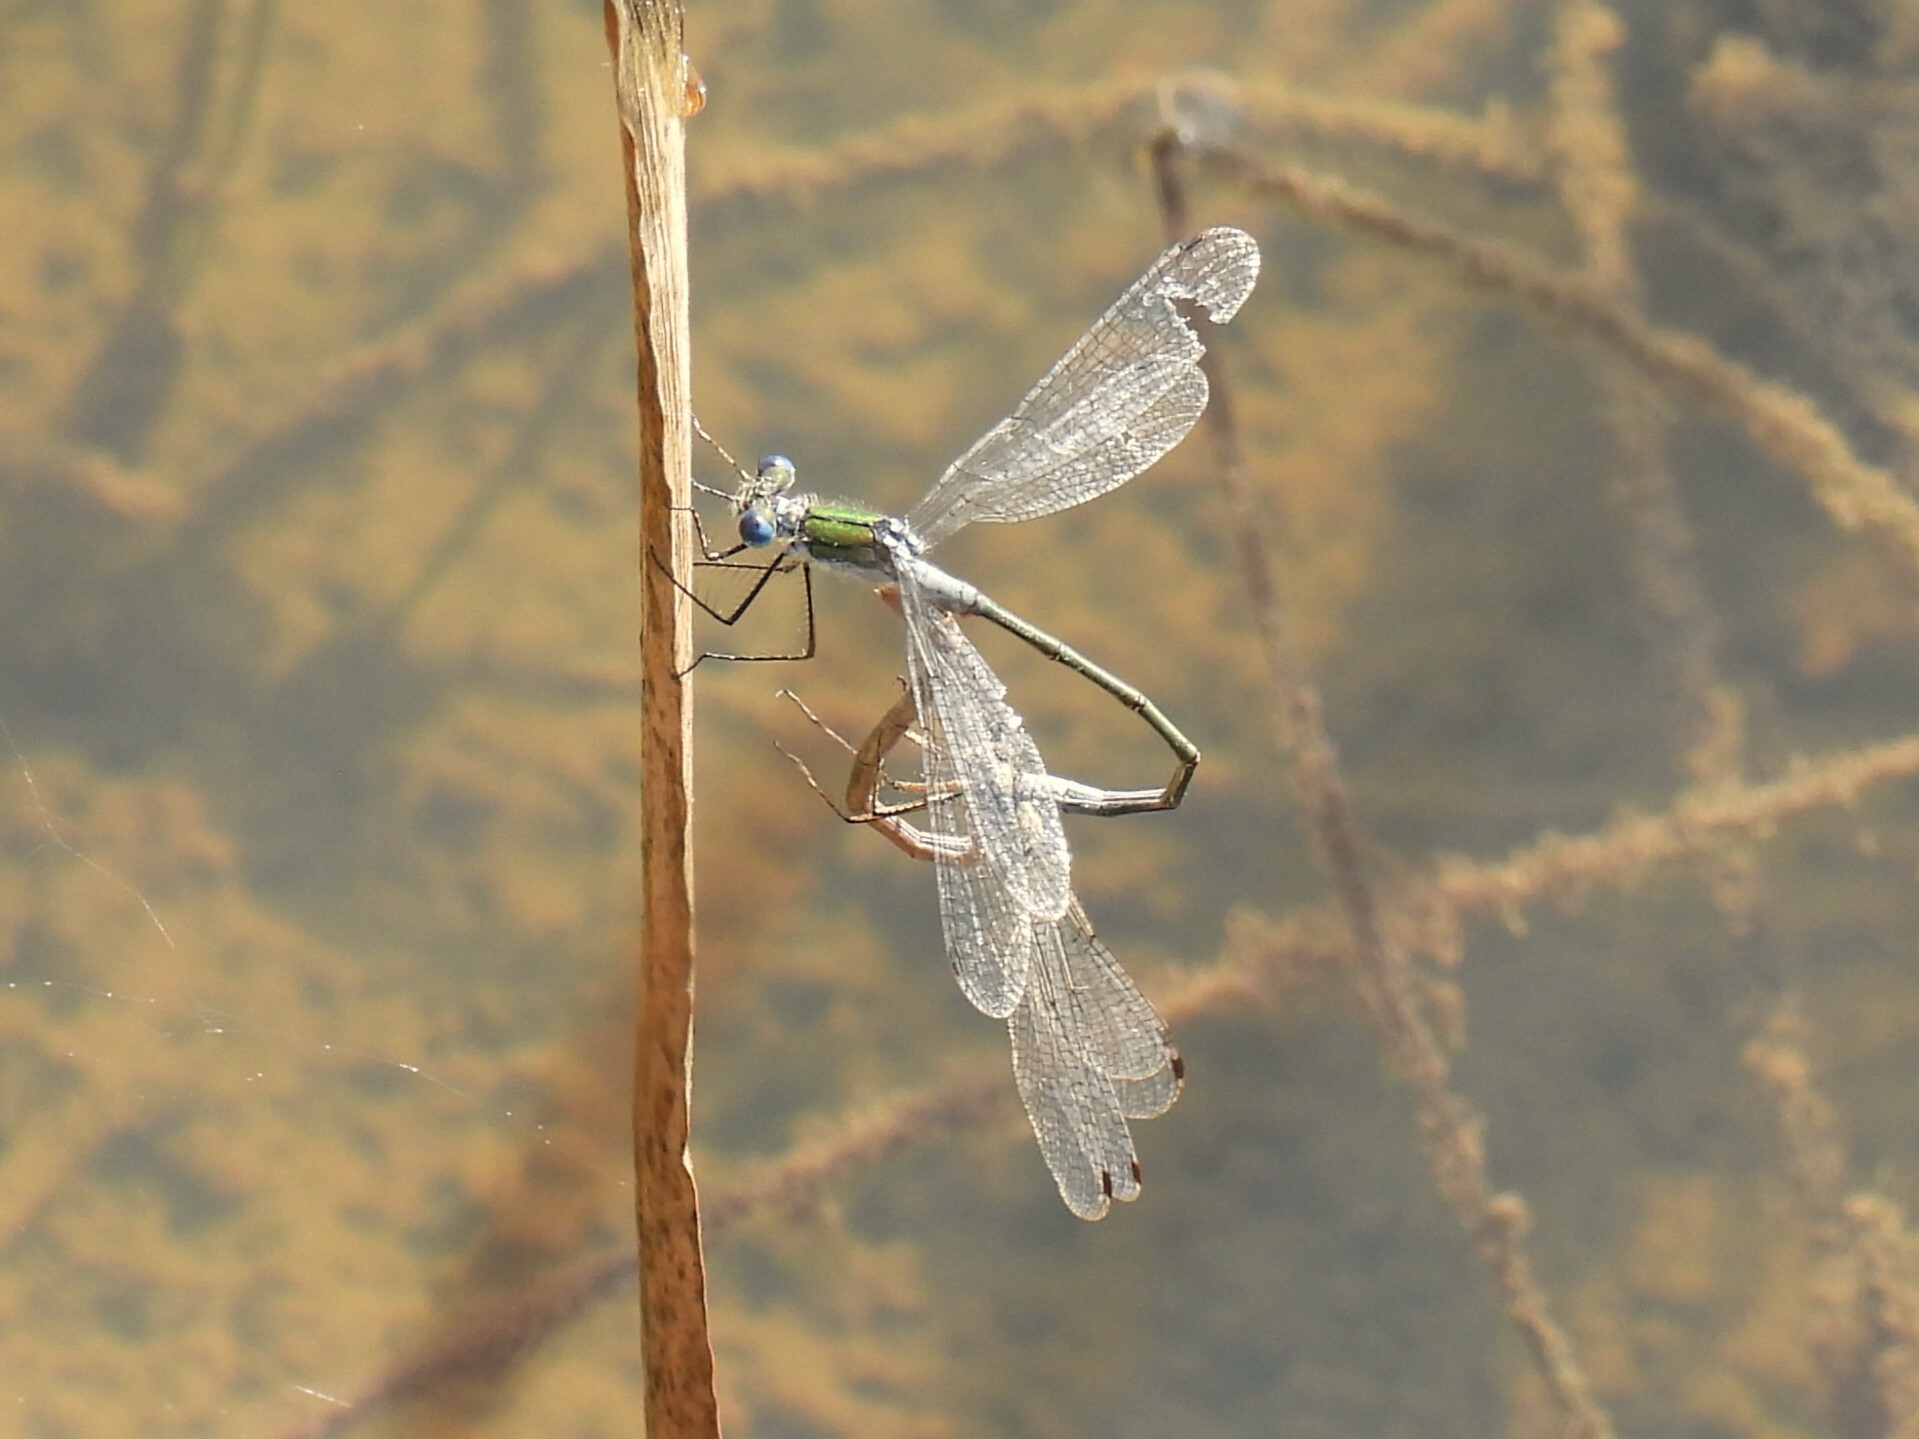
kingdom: Animalia
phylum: Arthropoda
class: Insecta
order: Odonata
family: Lestidae
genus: Lestes
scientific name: Lestes sponsa
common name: Common spreadwing
